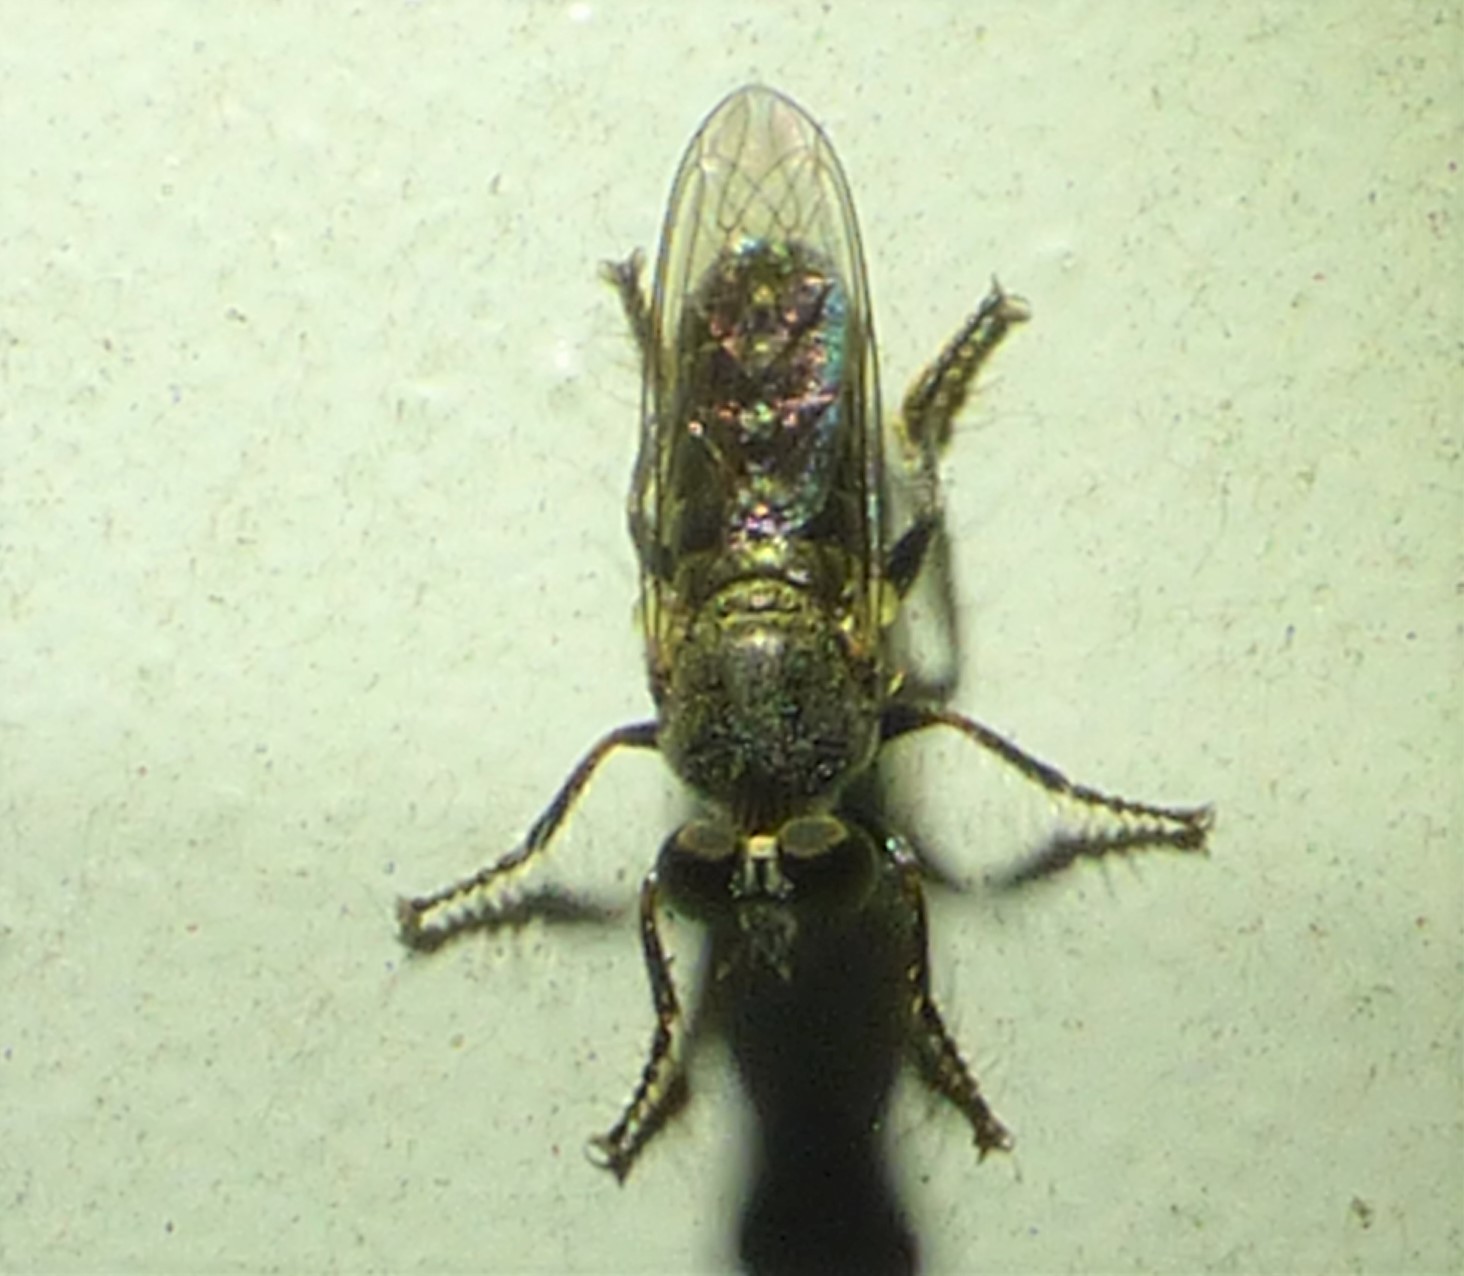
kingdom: Animalia
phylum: Arthropoda
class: Insecta
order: Diptera
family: Asilidae
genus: Atomosia
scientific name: Atomosia puella
